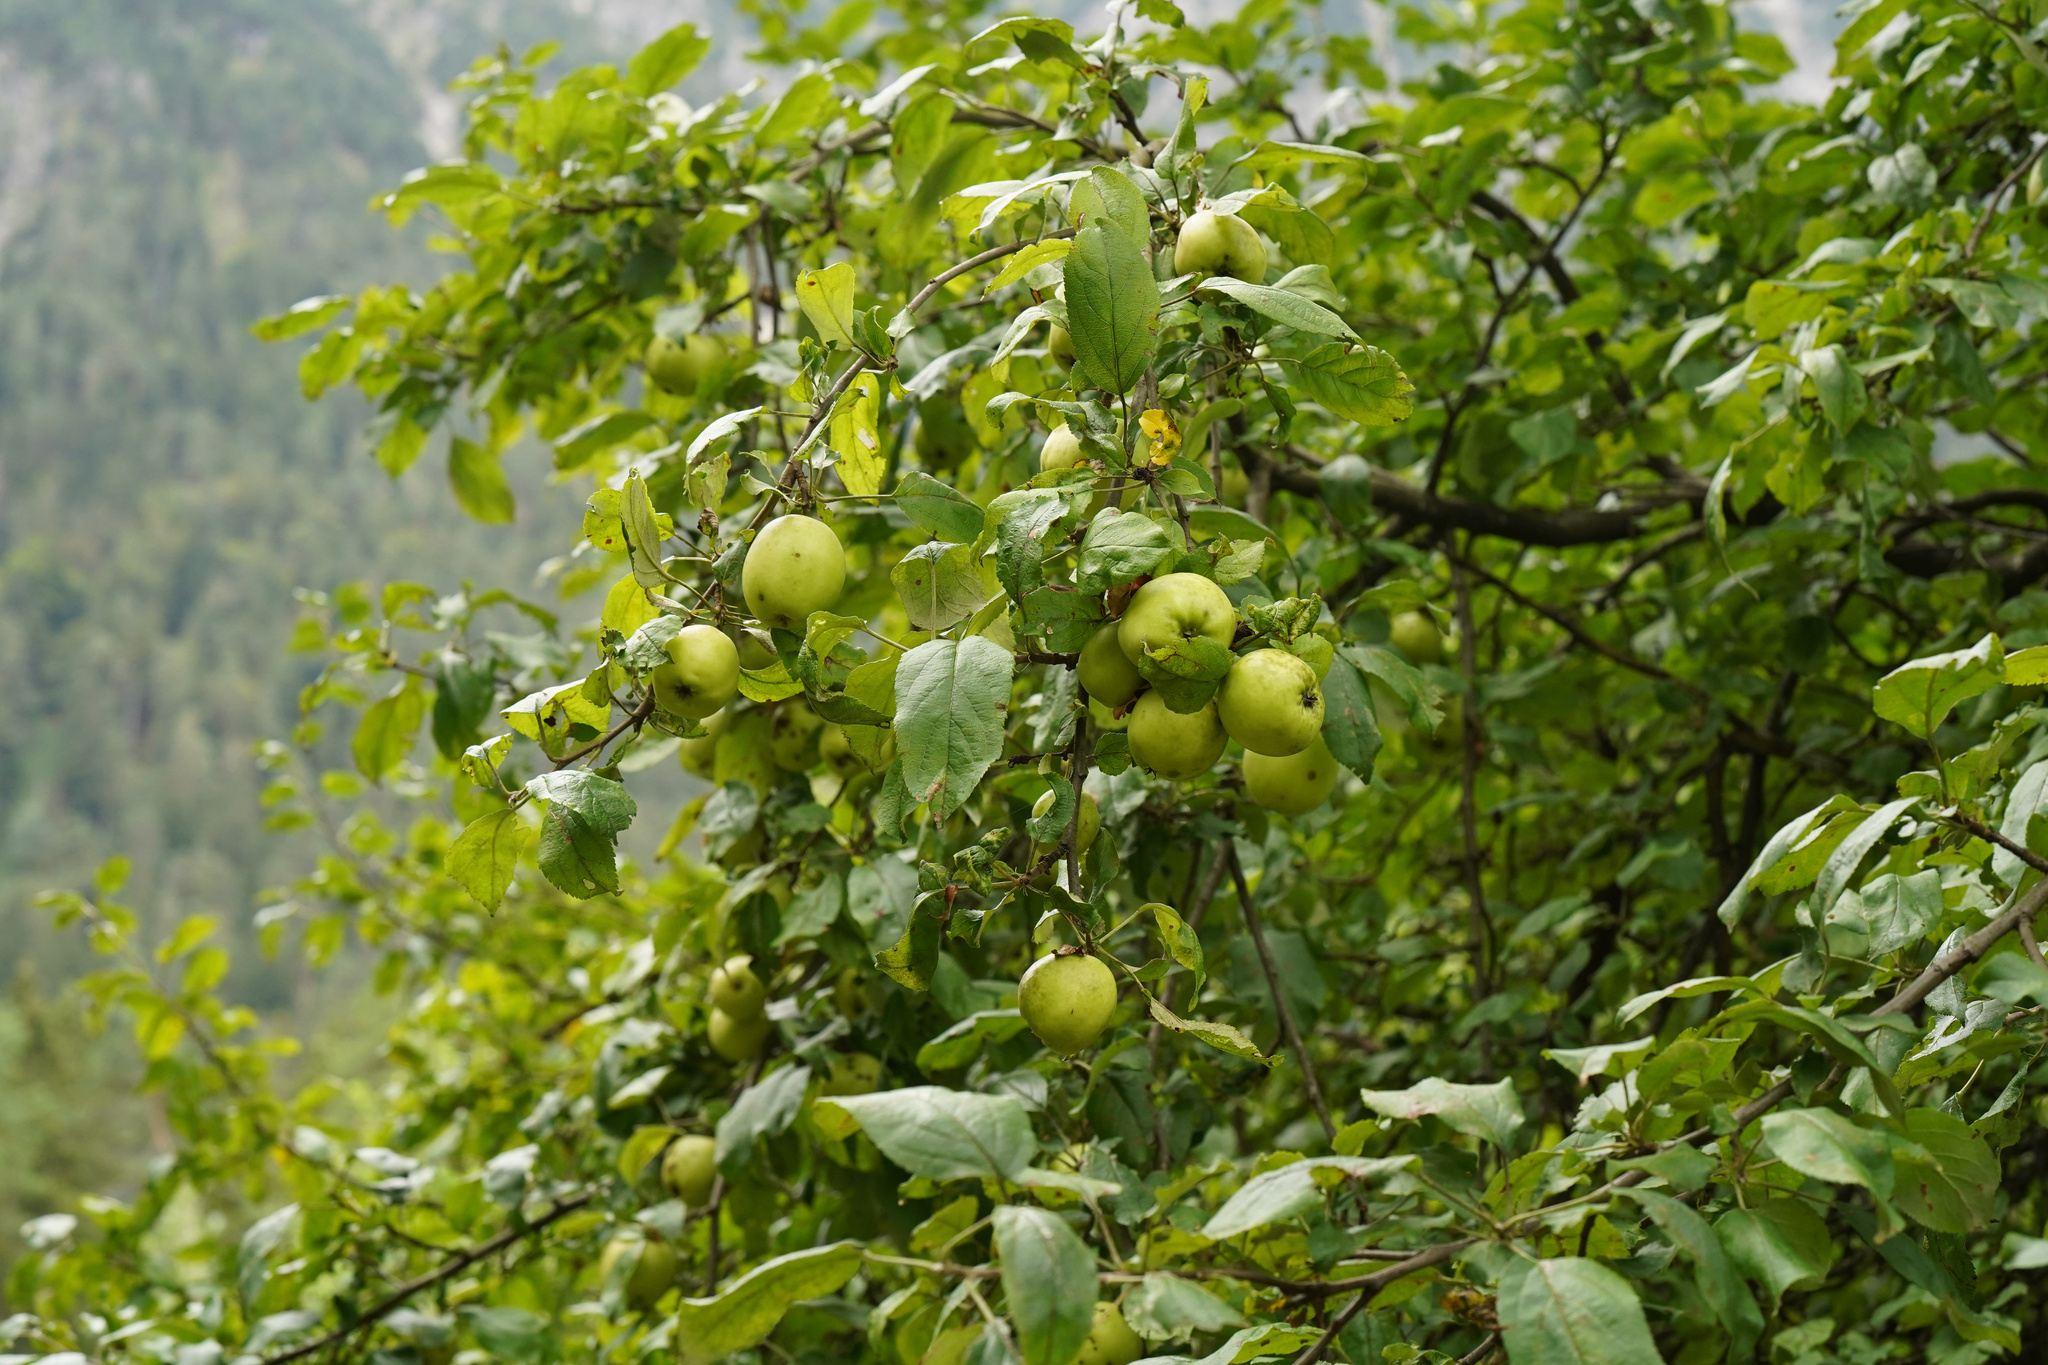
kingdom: Plantae
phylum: Tracheophyta
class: Magnoliopsida
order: Rosales
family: Rosaceae
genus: Malus
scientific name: Malus domestica
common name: Apple
